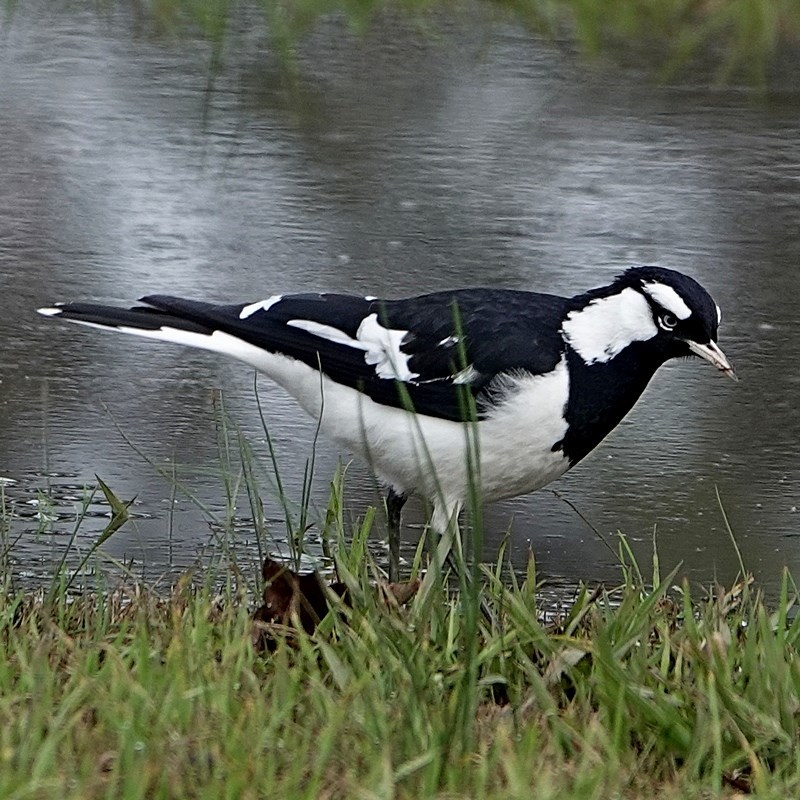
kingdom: Animalia
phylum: Chordata
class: Aves
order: Passeriformes
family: Monarchidae
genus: Grallina
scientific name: Grallina cyanoleuca
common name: Magpie-lark
